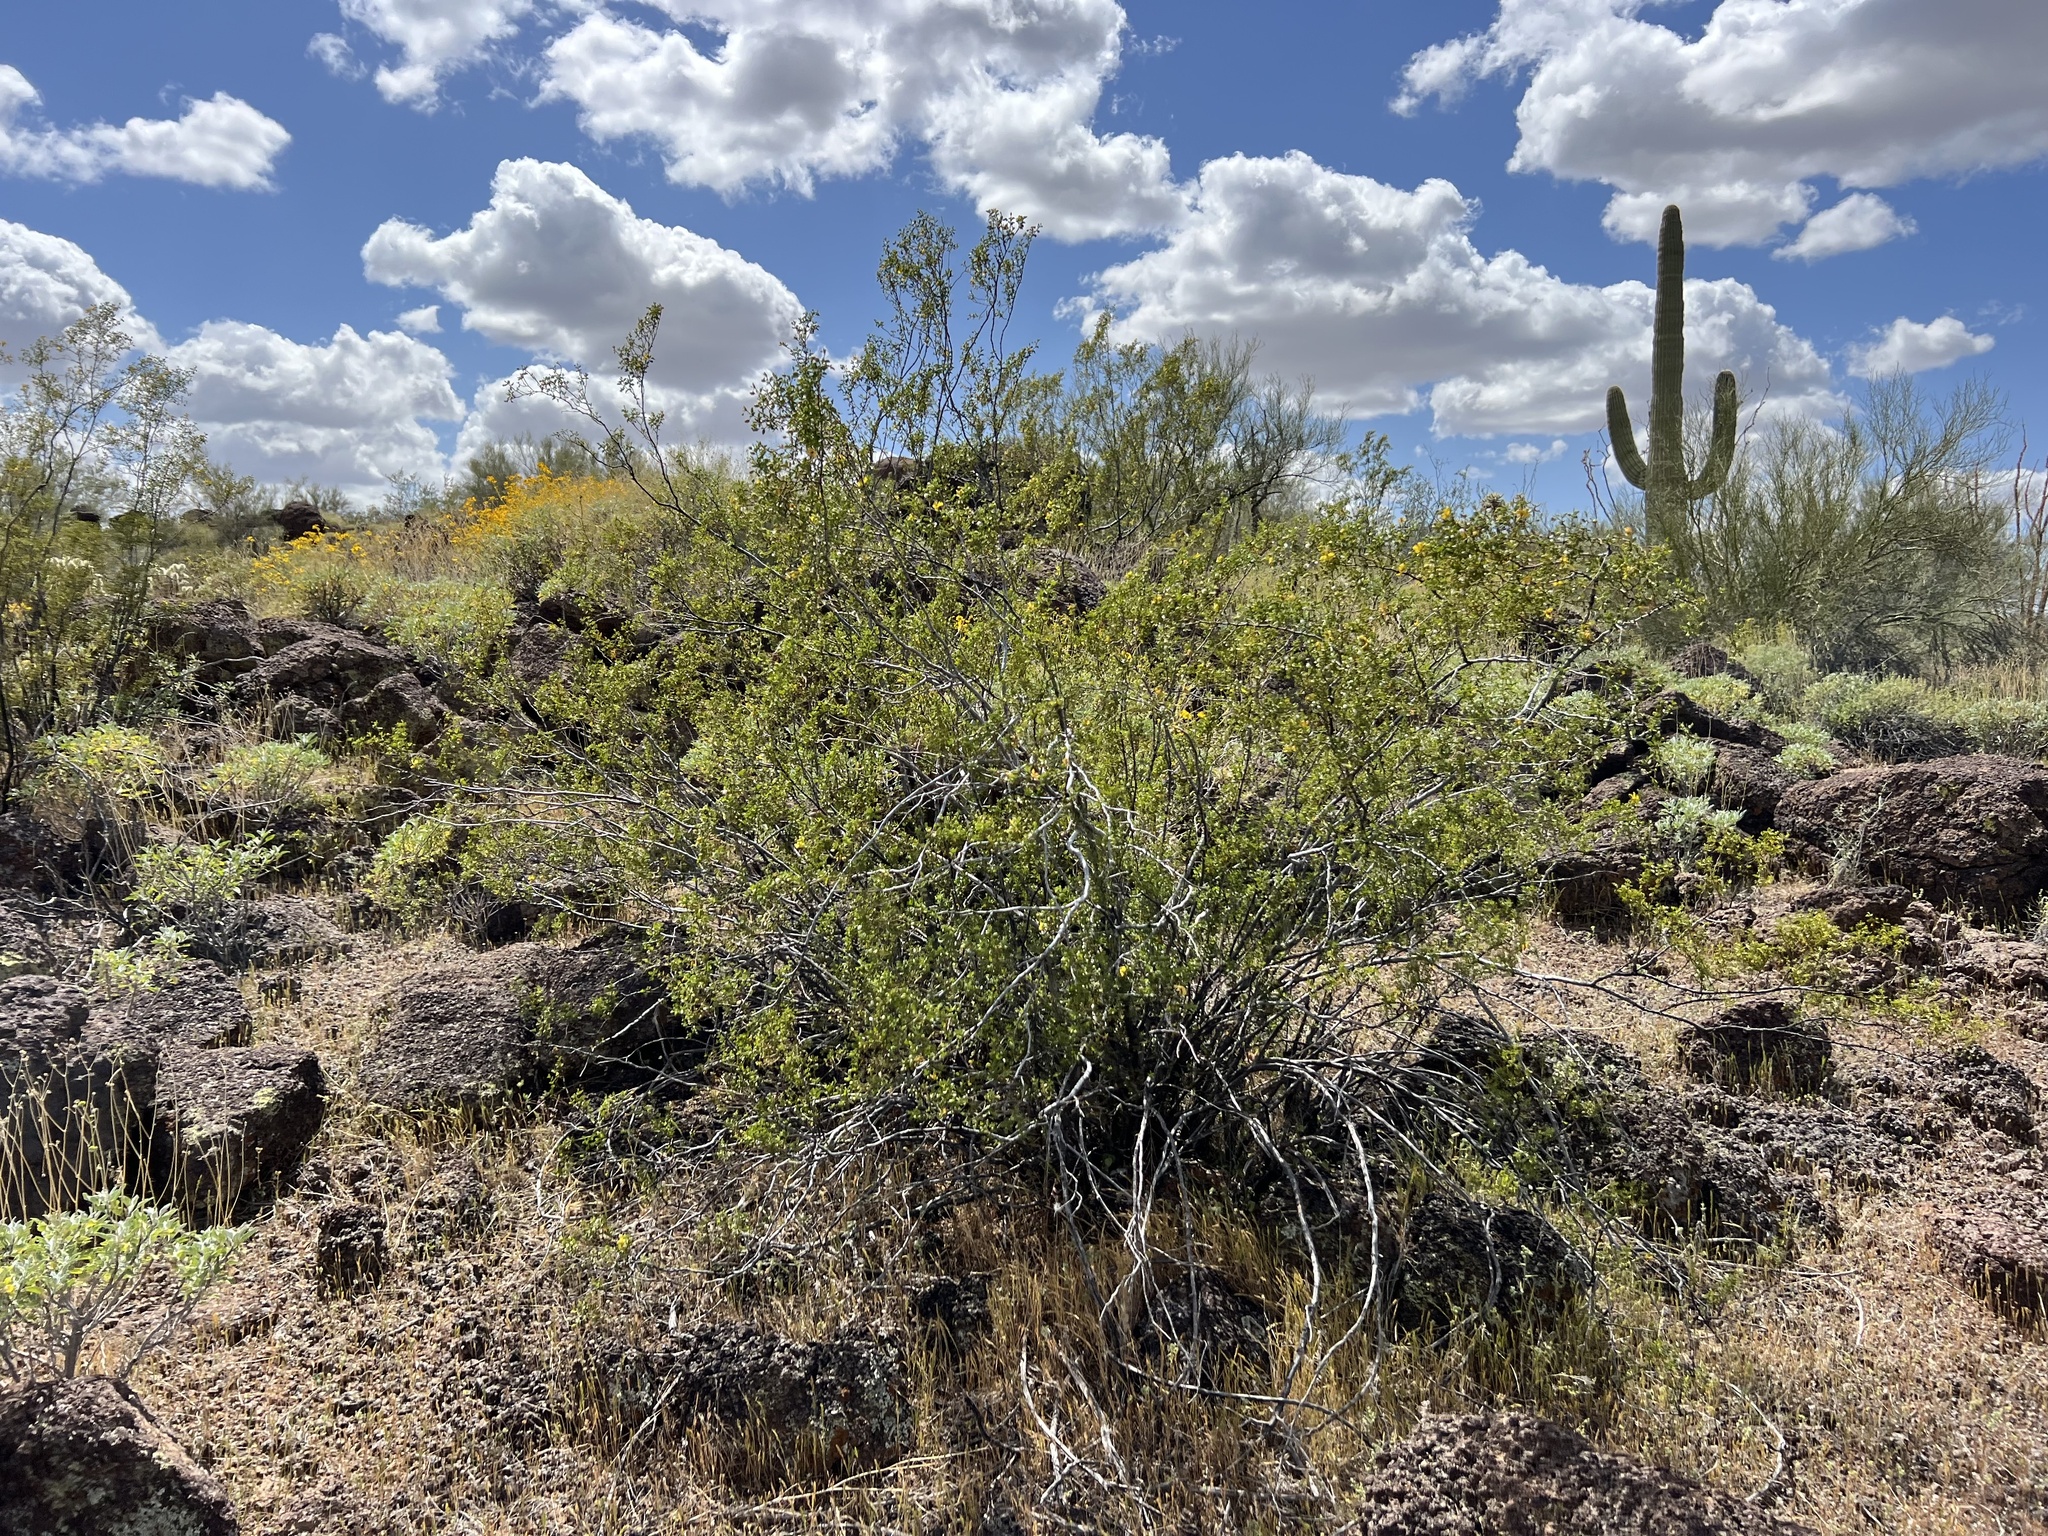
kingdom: Plantae
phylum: Tracheophyta
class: Magnoliopsida
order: Zygophyllales
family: Zygophyllaceae
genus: Larrea
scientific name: Larrea tridentata
